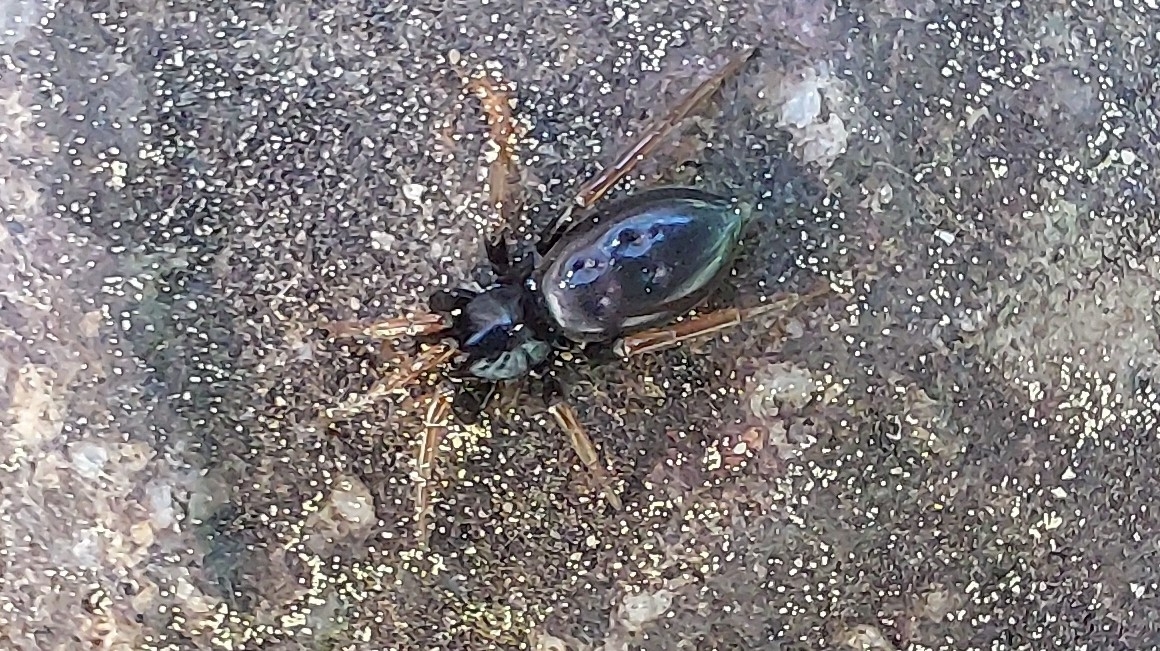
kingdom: Animalia
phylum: Arthropoda
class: Arachnida
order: Araneae
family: Gnaphosidae
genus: Trachyzelotes
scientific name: Trachyzelotes pedestris
